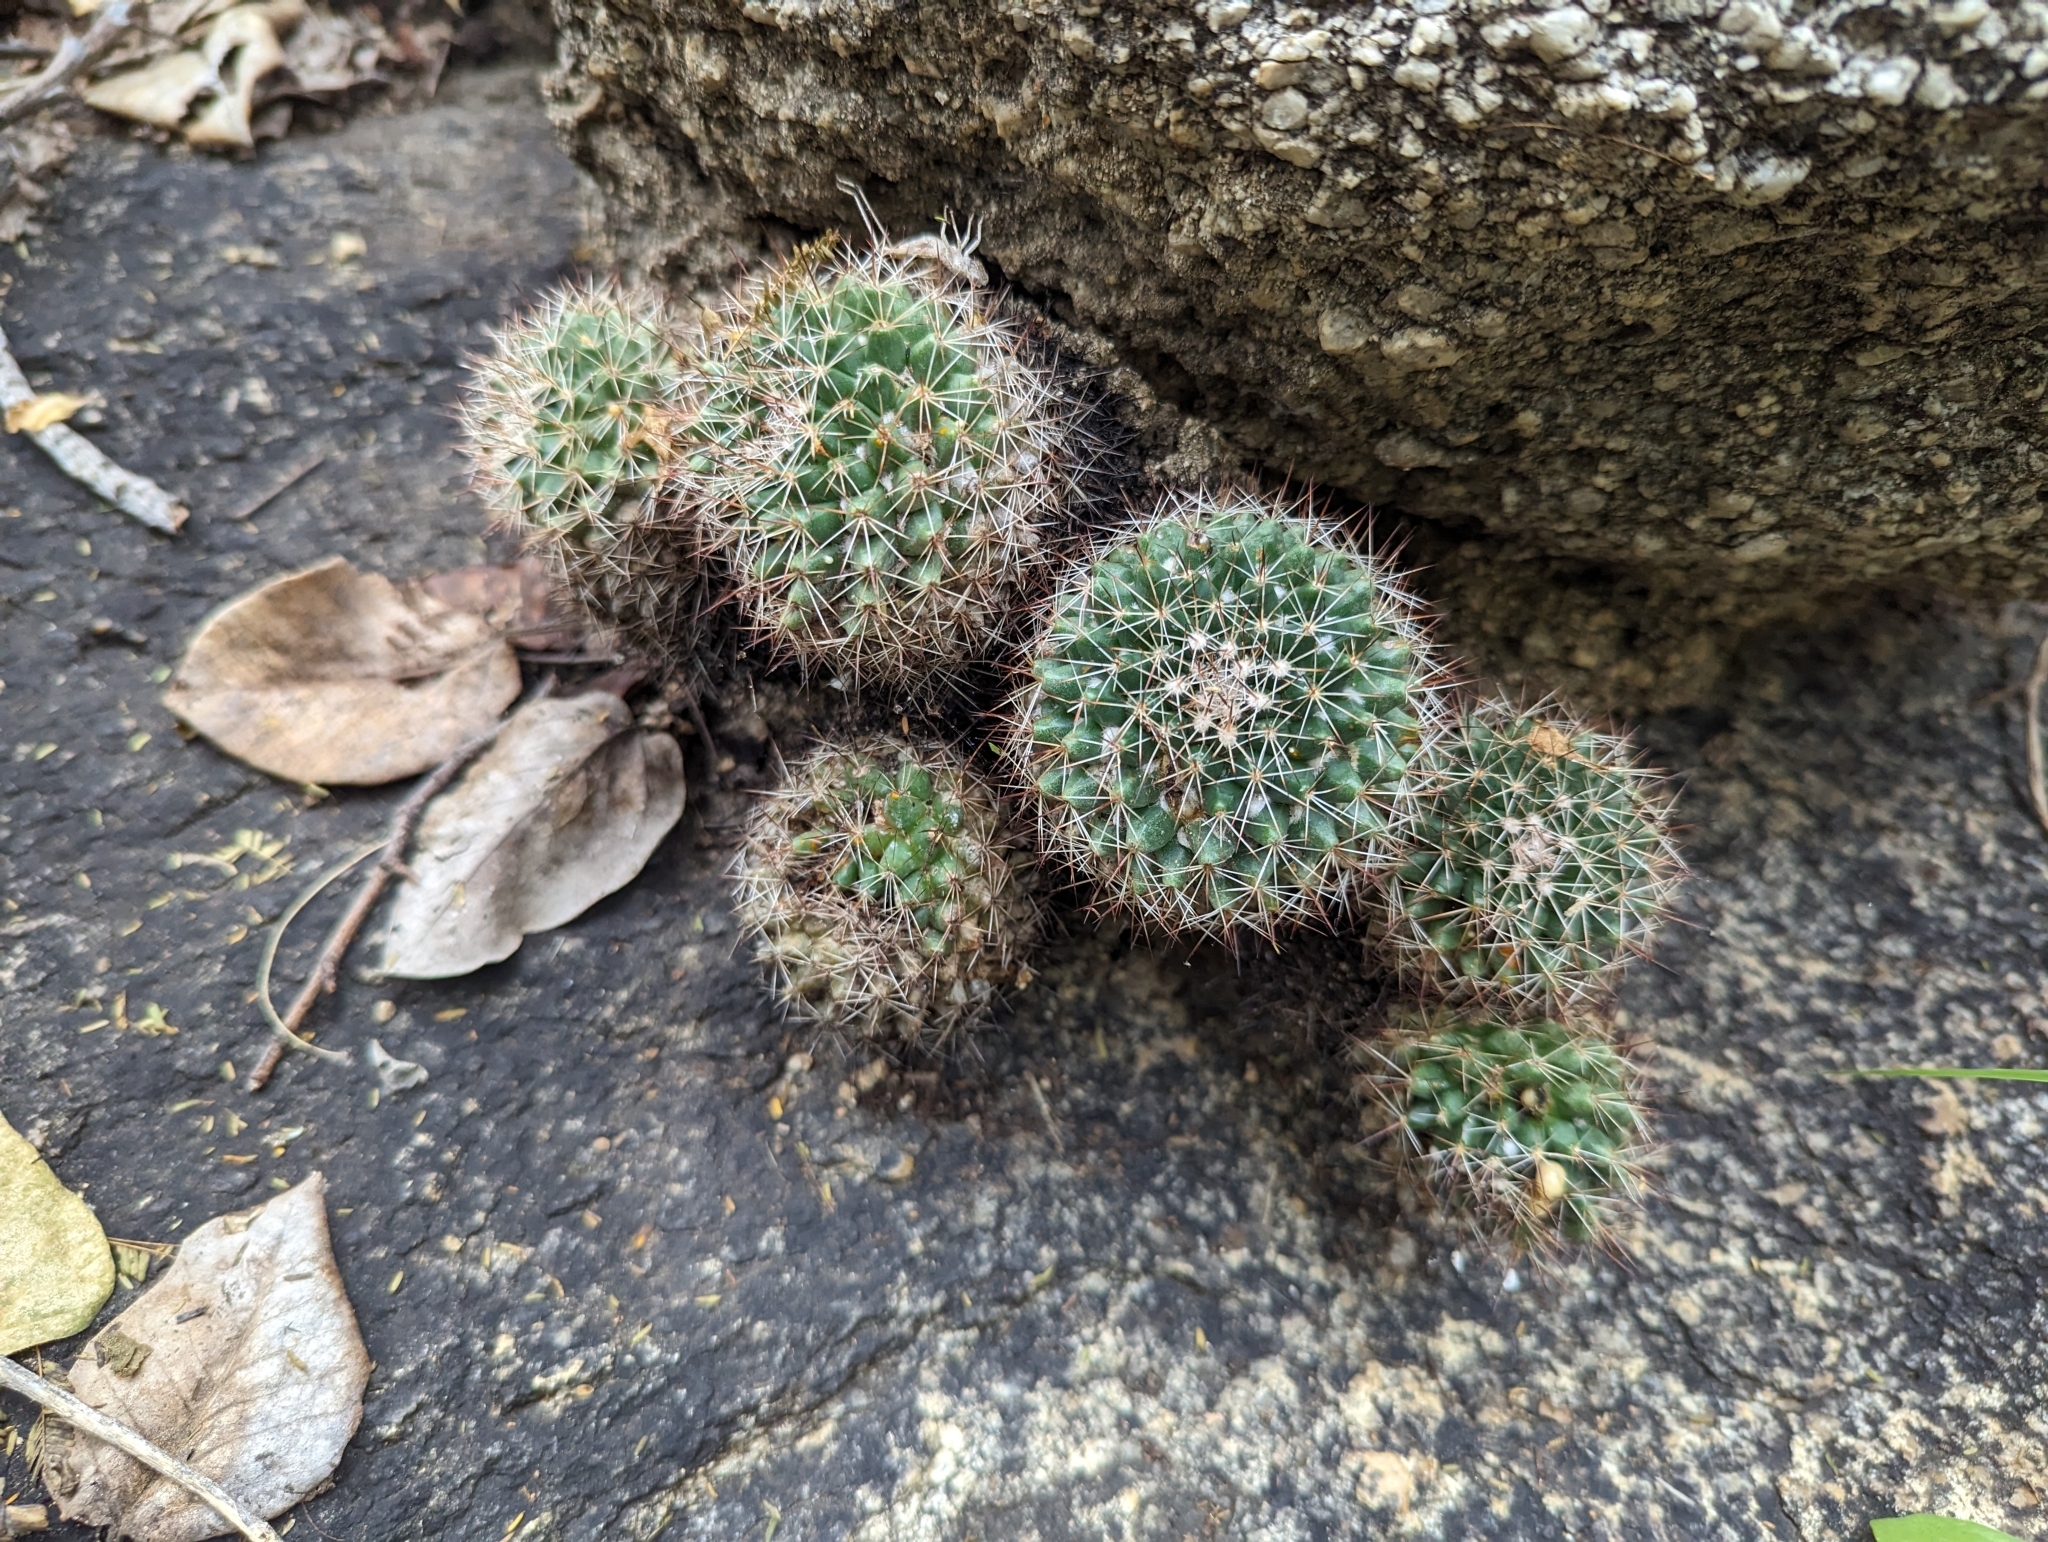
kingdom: Plantae
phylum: Tracheophyta
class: Magnoliopsida
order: Caryophyllales
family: Cactaceae
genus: Mammillaria
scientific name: Mammillaria petrophila
